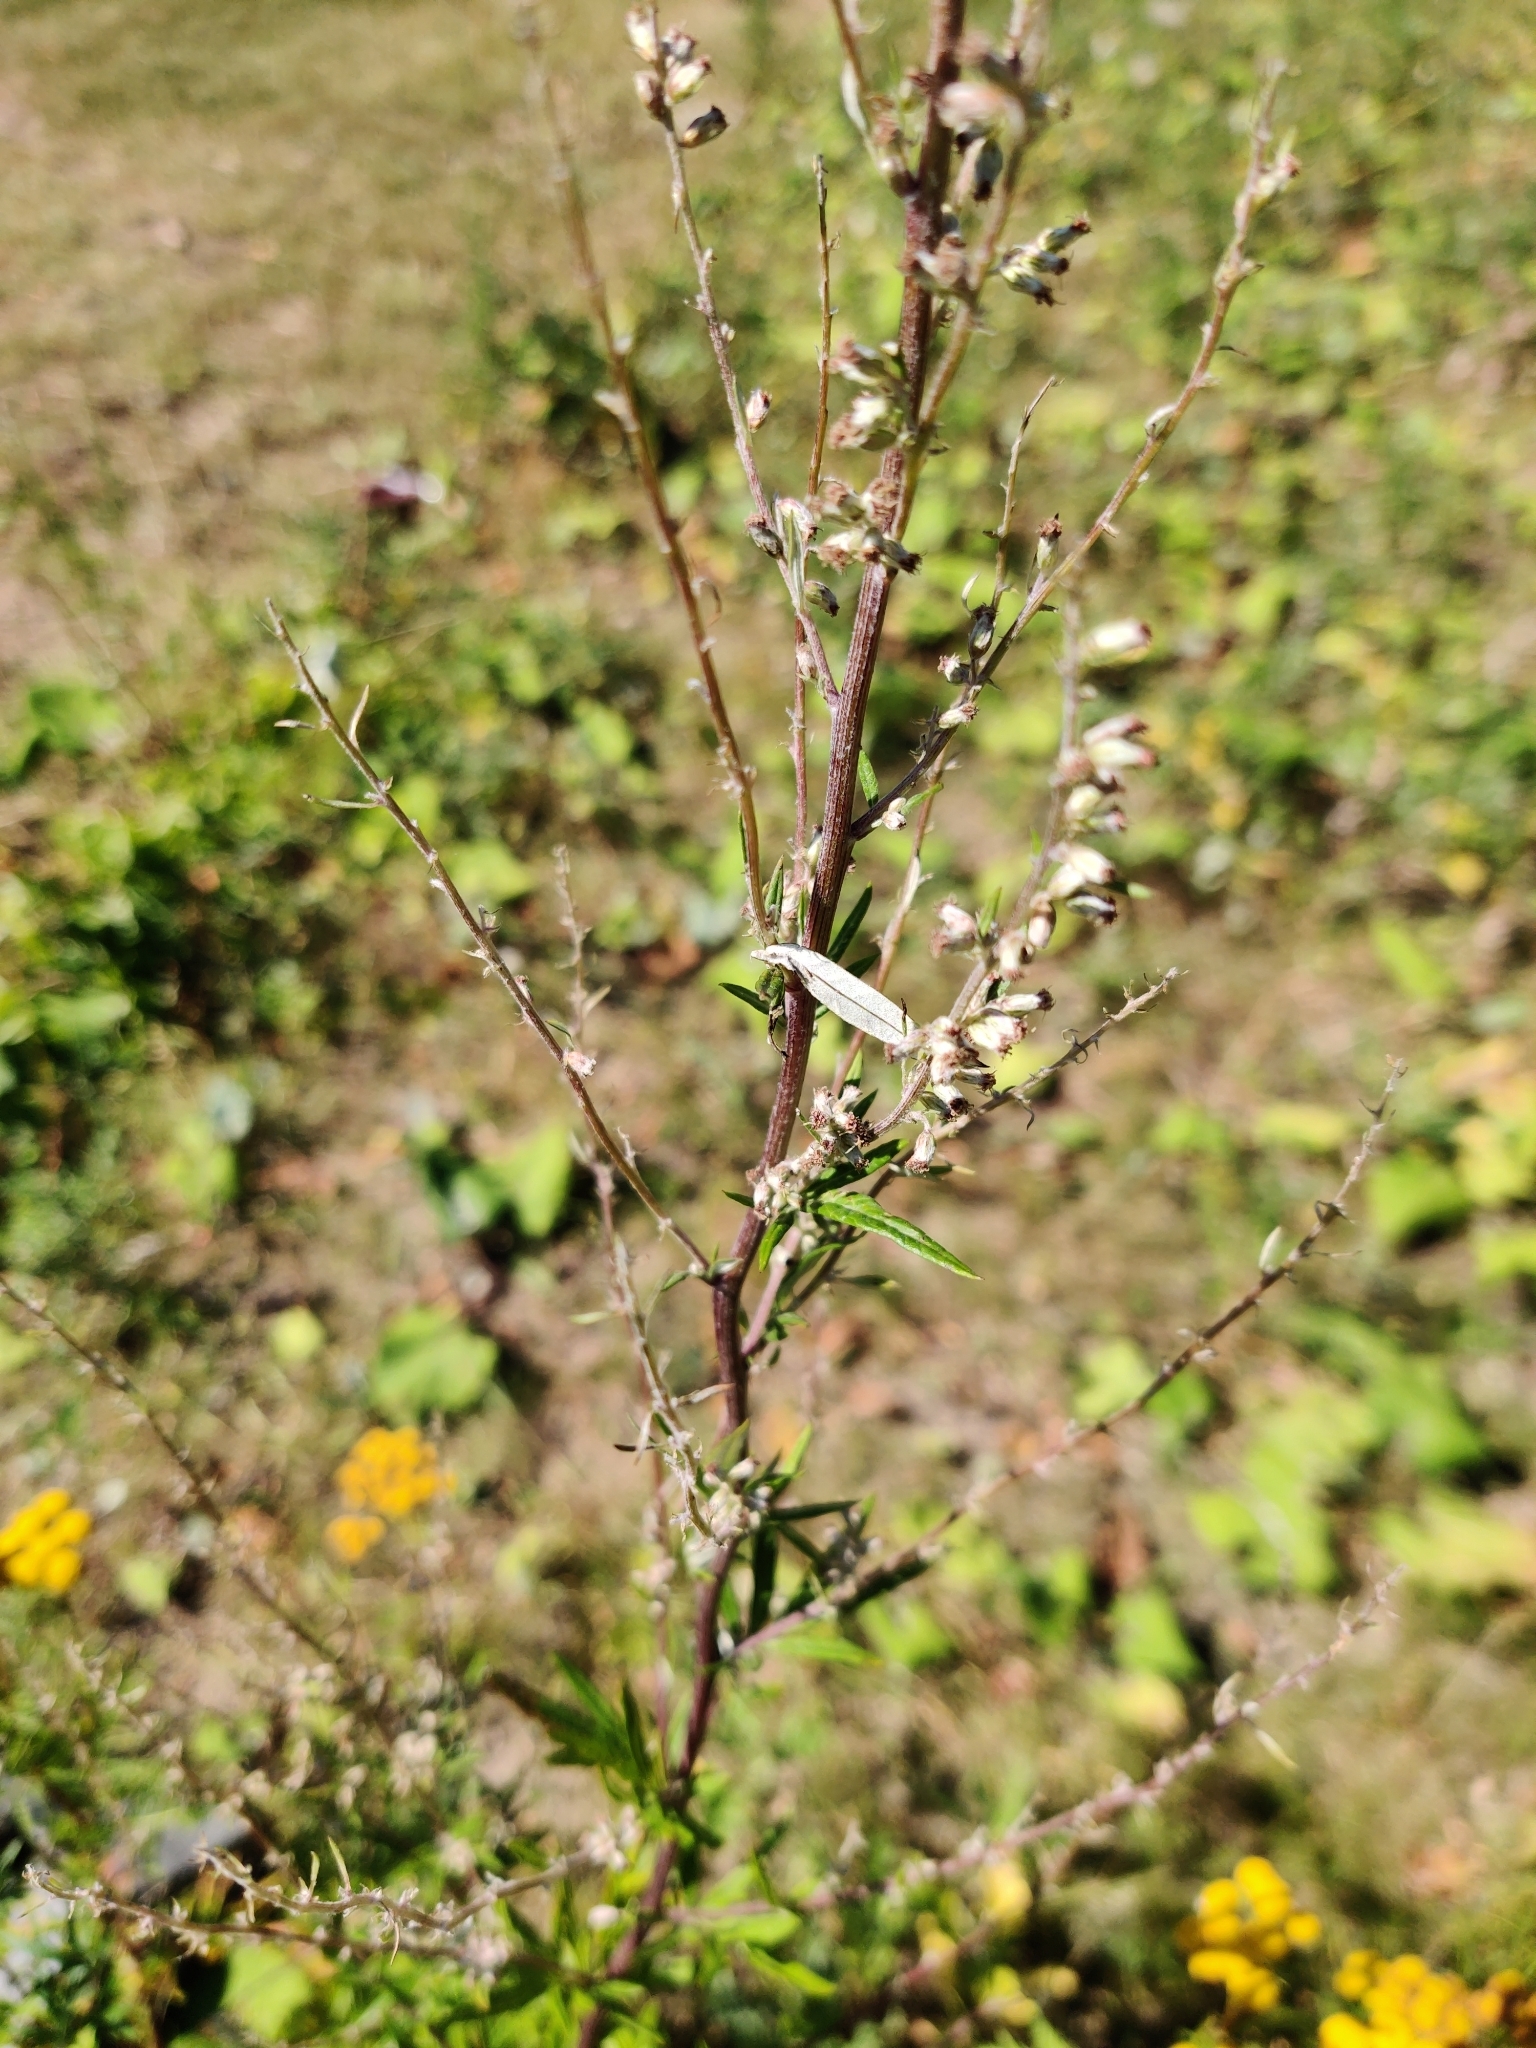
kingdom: Plantae
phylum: Tracheophyta
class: Magnoliopsida
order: Asterales
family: Asteraceae
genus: Artemisia
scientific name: Artemisia vulgaris
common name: Mugwort
